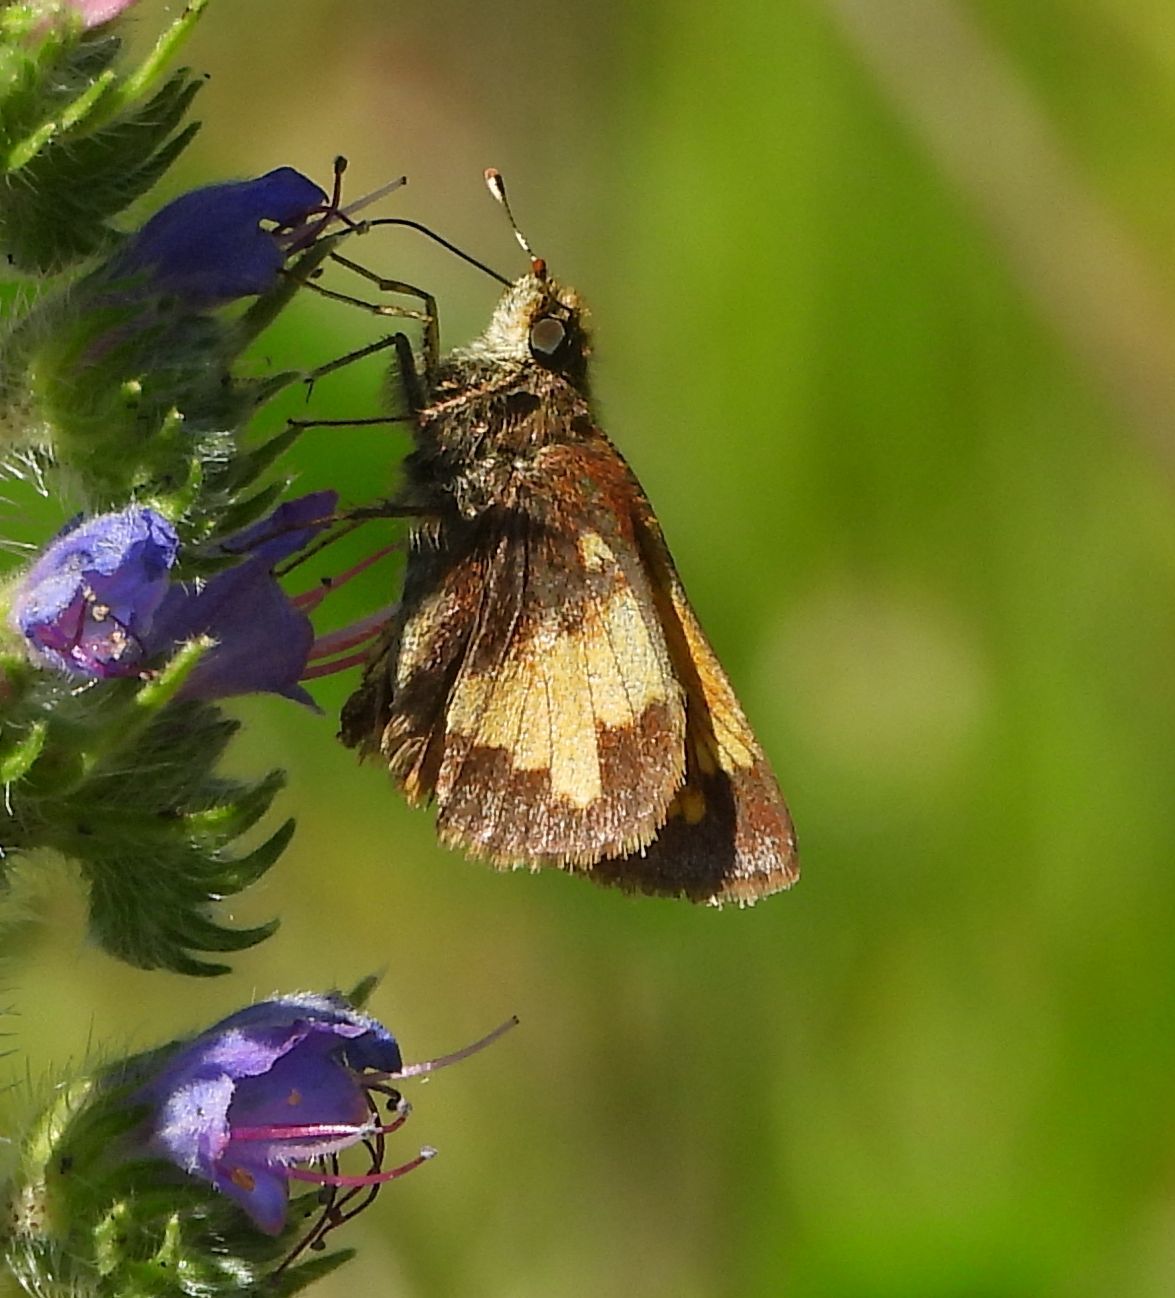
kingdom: Animalia
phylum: Arthropoda
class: Insecta
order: Lepidoptera
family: Hesperiidae
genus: Lon
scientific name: Lon hobomok
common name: Hobomok skipper
